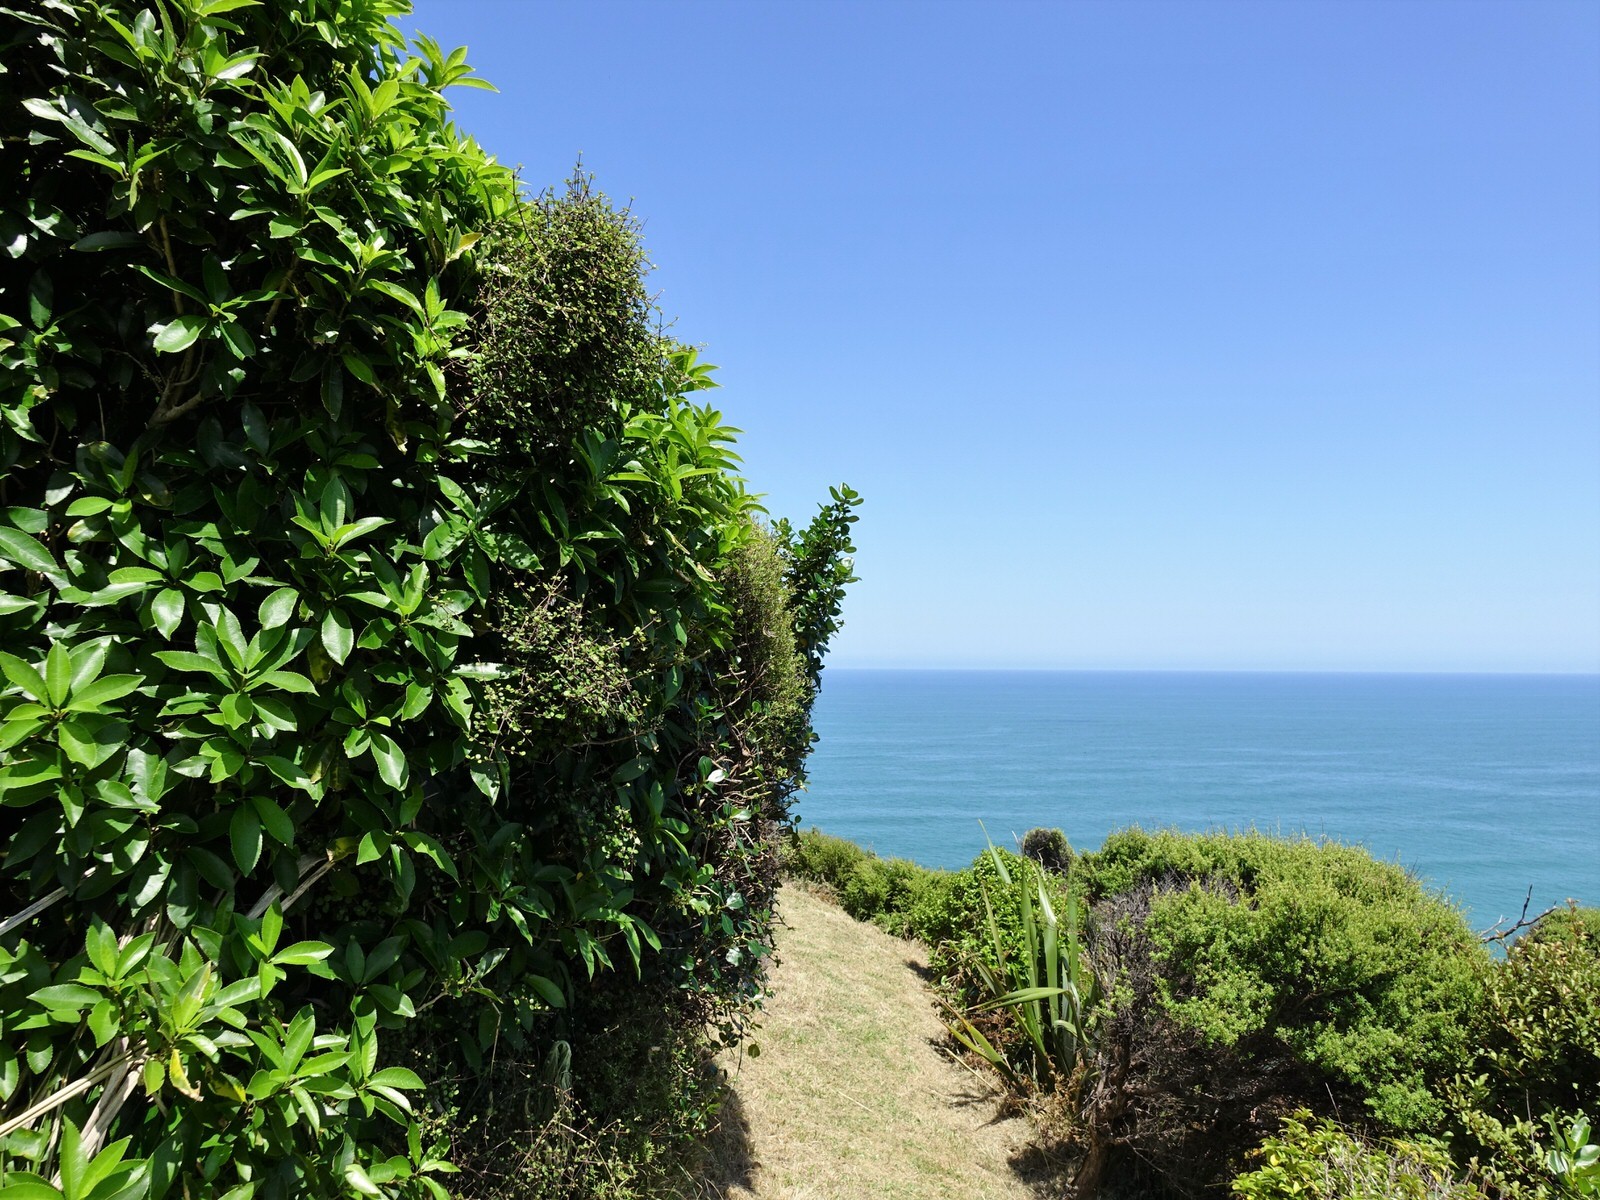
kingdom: Plantae
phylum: Tracheophyta
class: Magnoliopsida
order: Gentianales
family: Rubiaceae
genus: Coprosma
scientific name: Coprosma crassifolia
